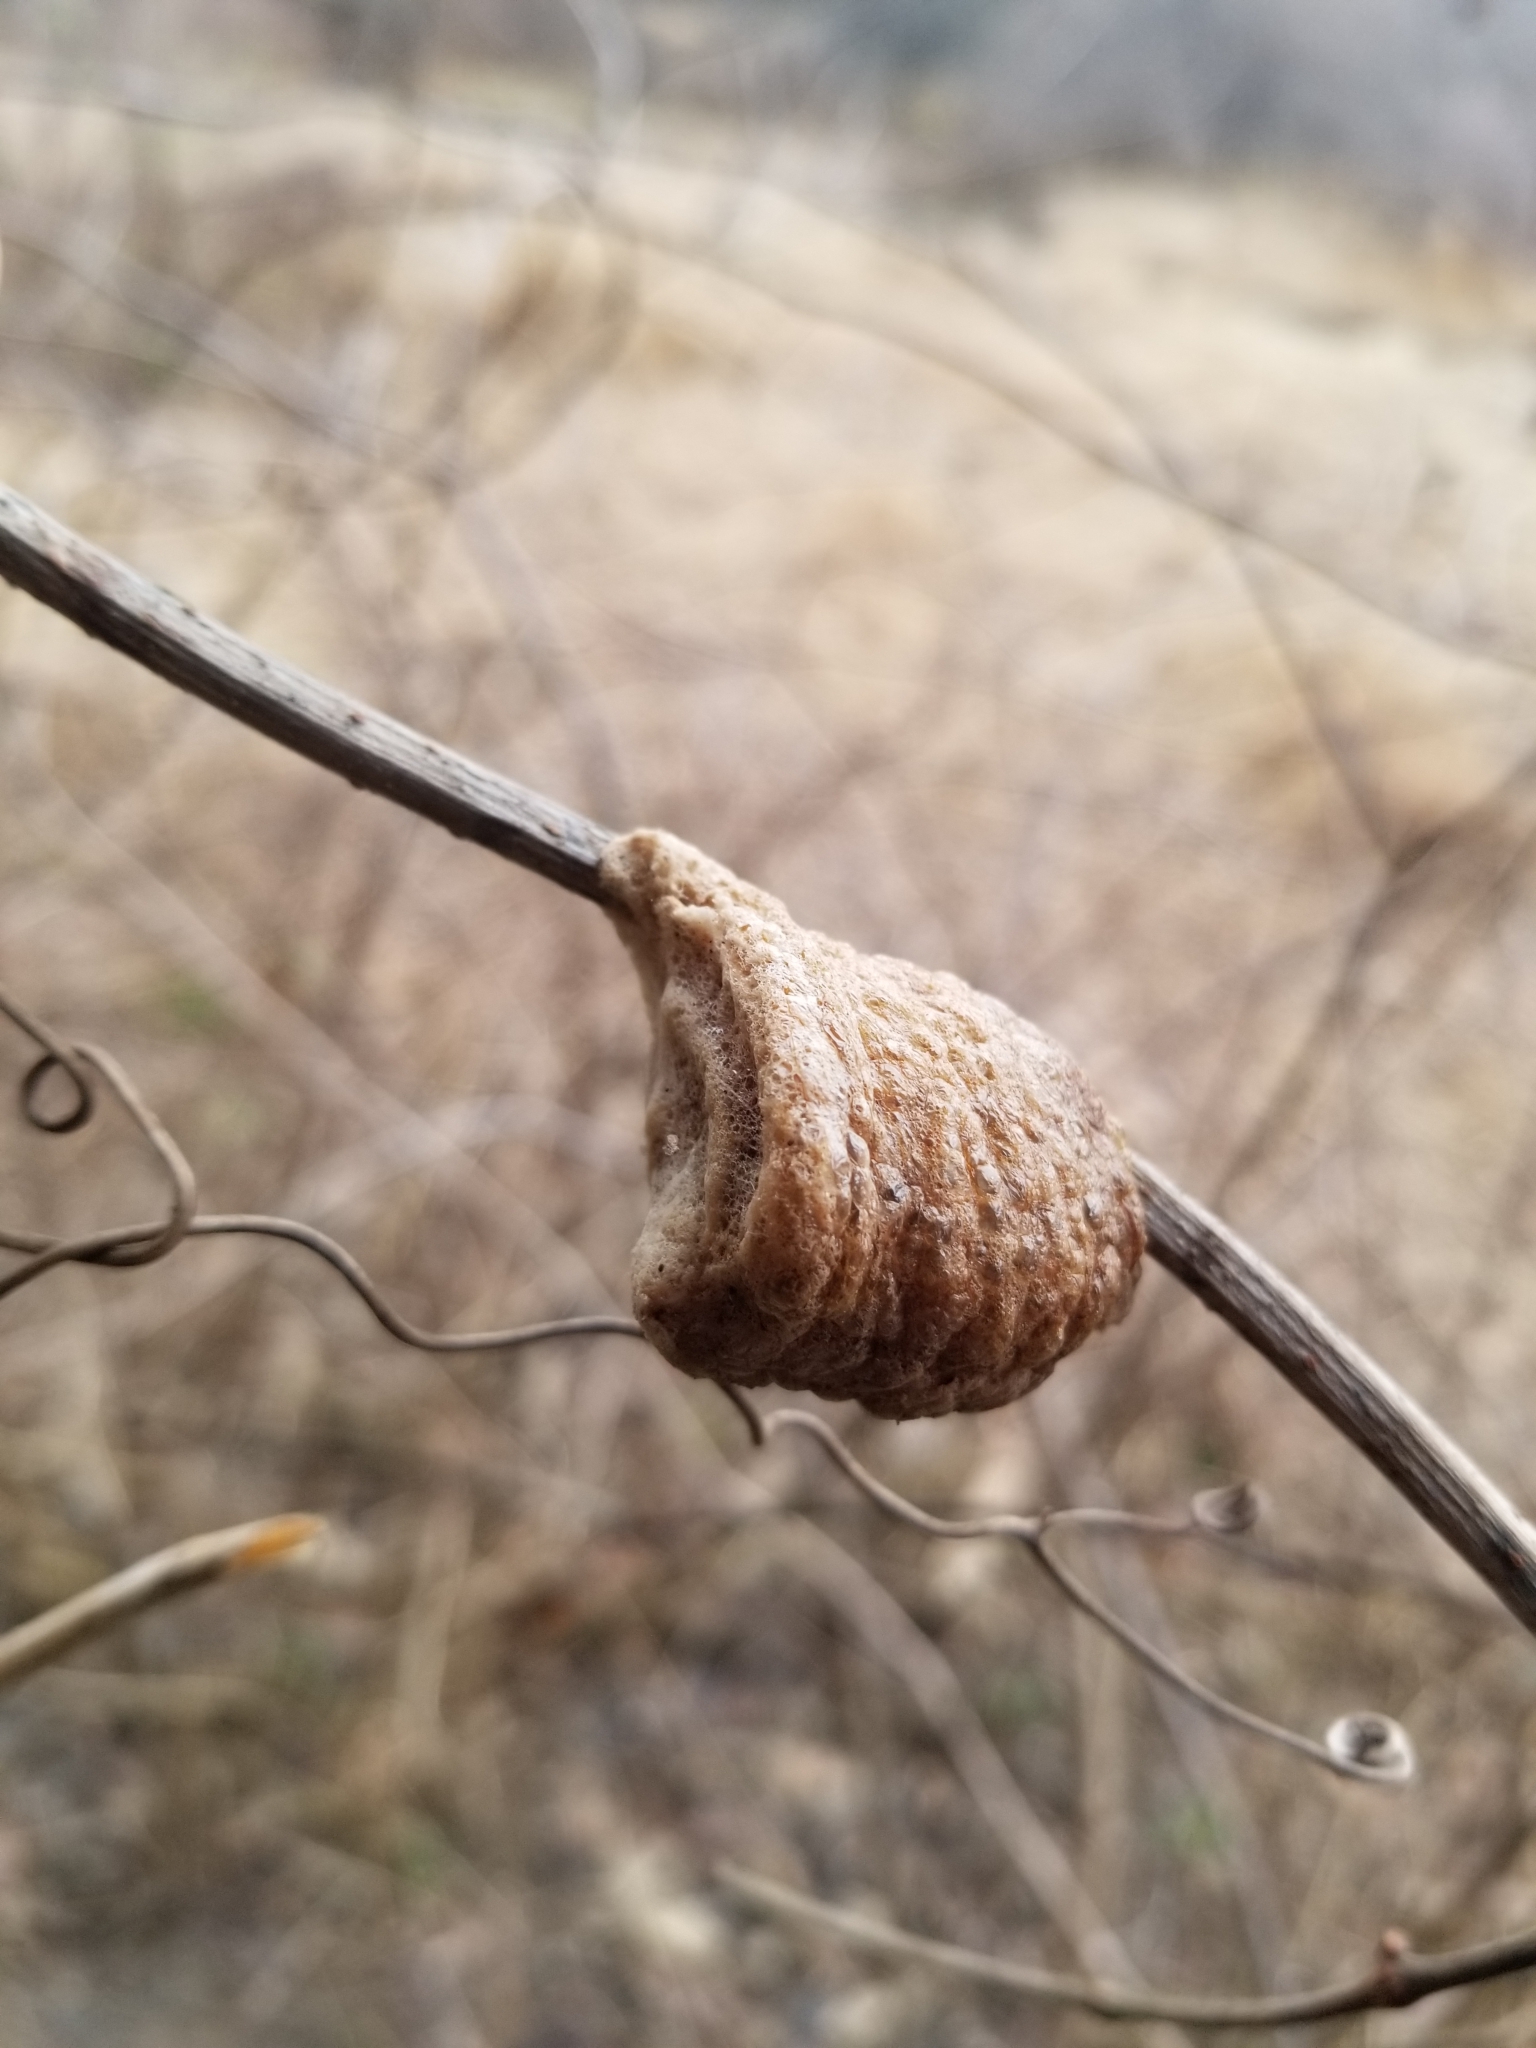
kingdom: Animalia
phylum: Arthropoda
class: Insecta
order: Mantodea
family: Mantidae
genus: Tenodera
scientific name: Tenodera sinensis
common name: Chinese mantis
